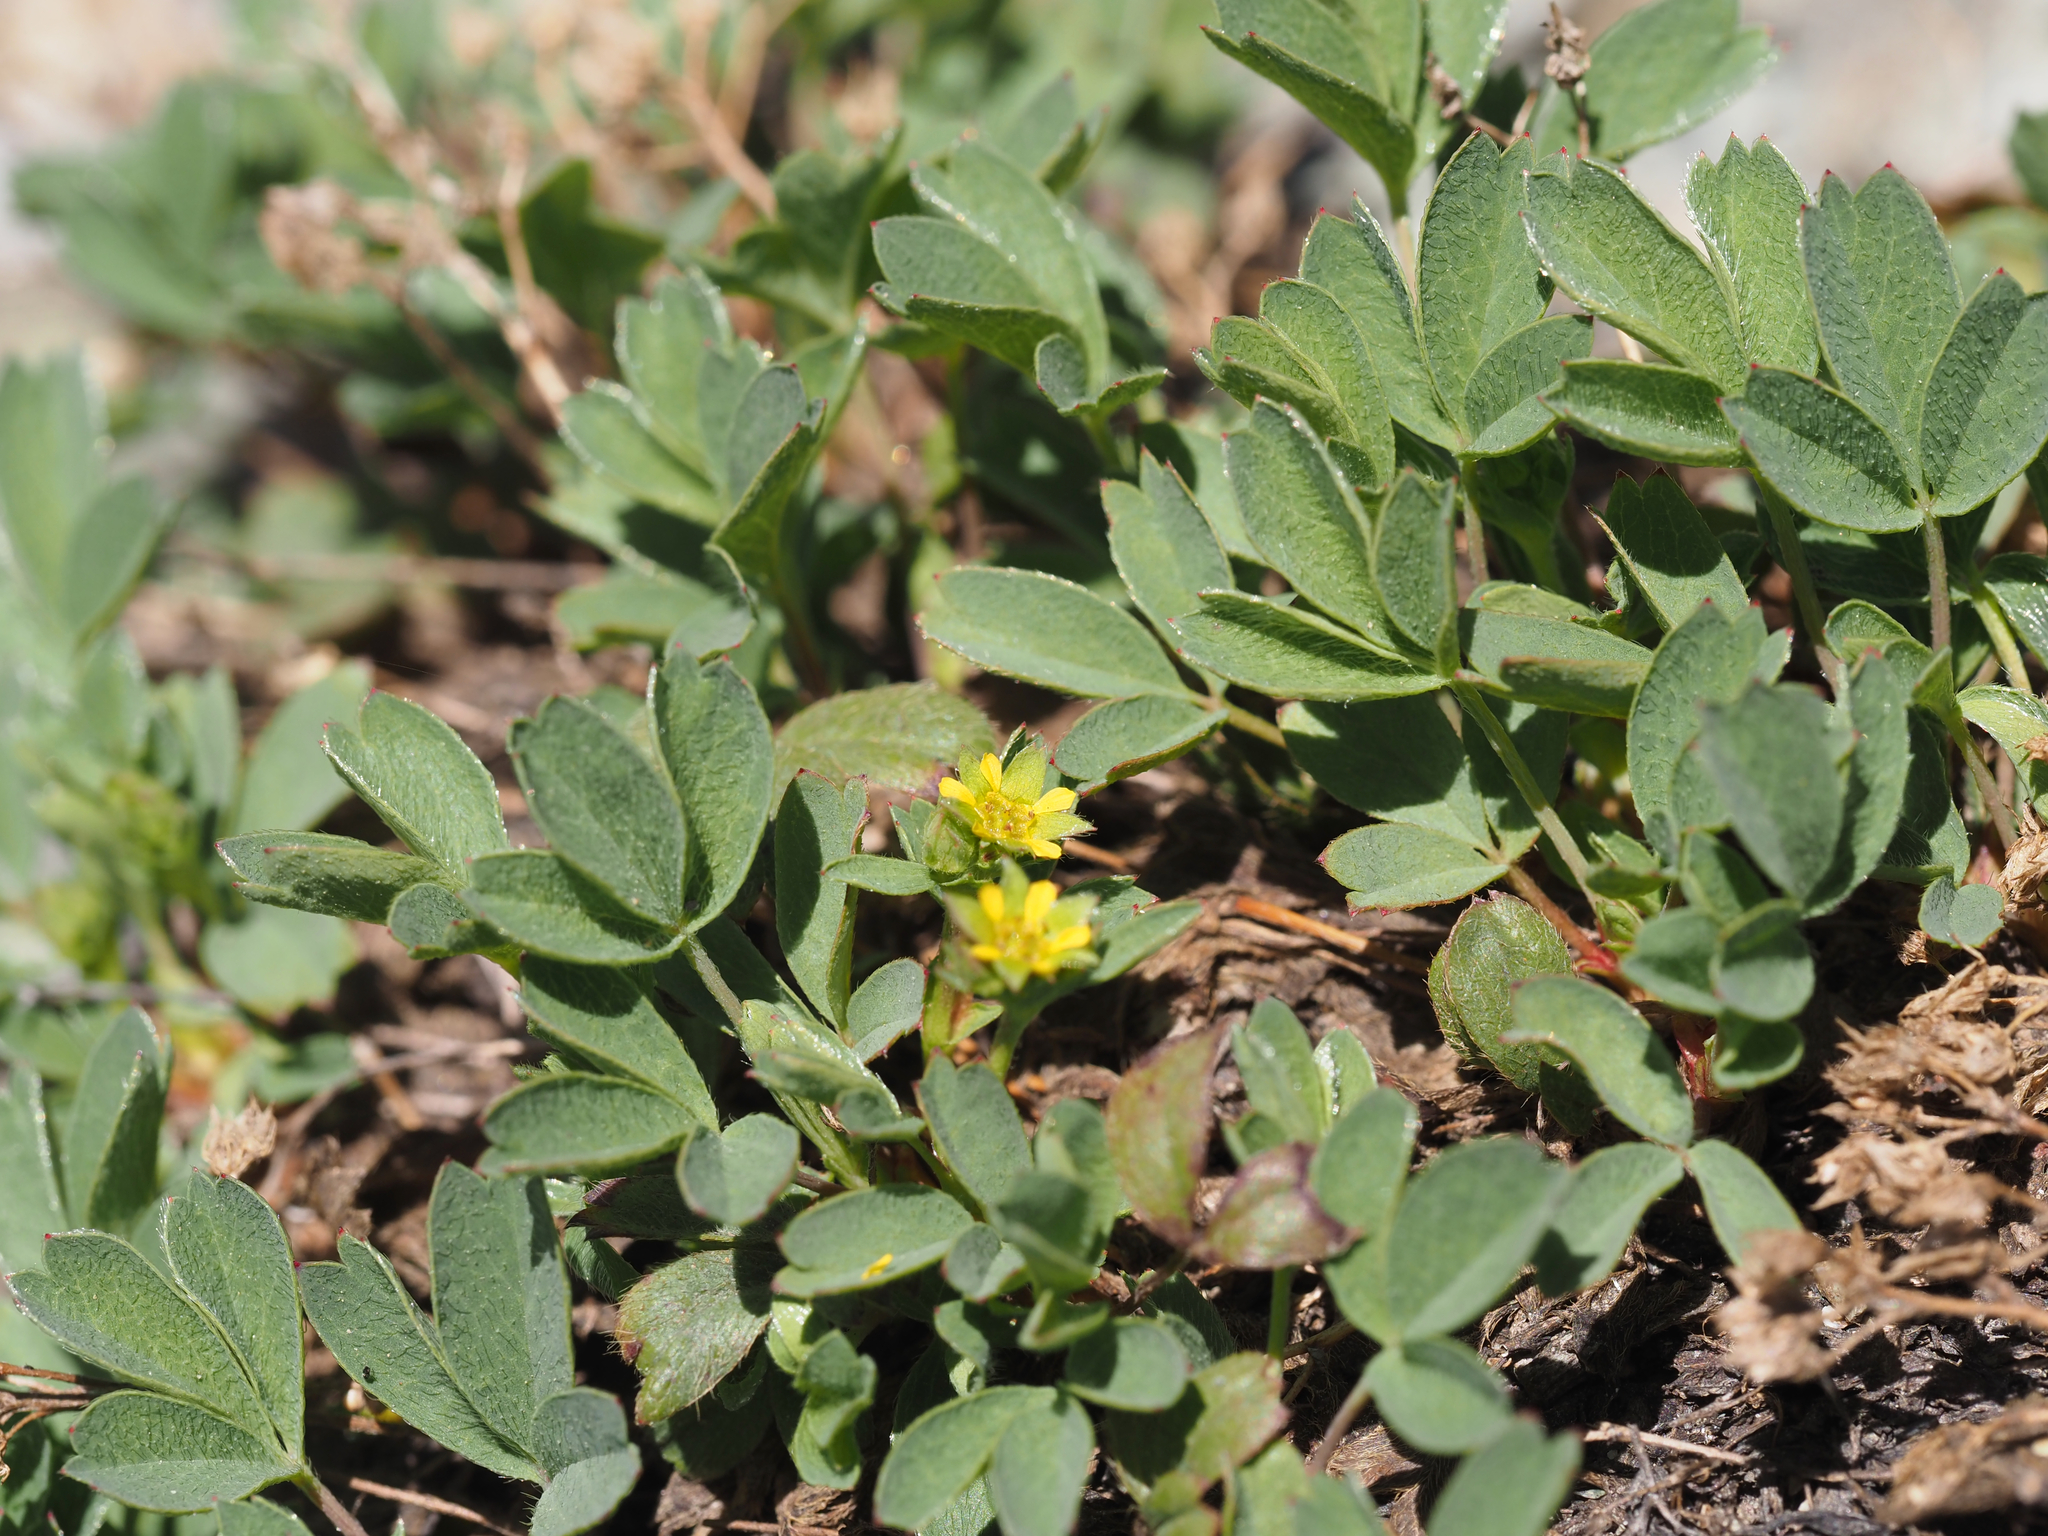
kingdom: Plantae
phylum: Tracheophyta
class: Magnoliopsida
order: Rosales
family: Rosaceae
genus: Sibbaldia
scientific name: Sibbaldia procumbens
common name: Creeping sibbaldia
